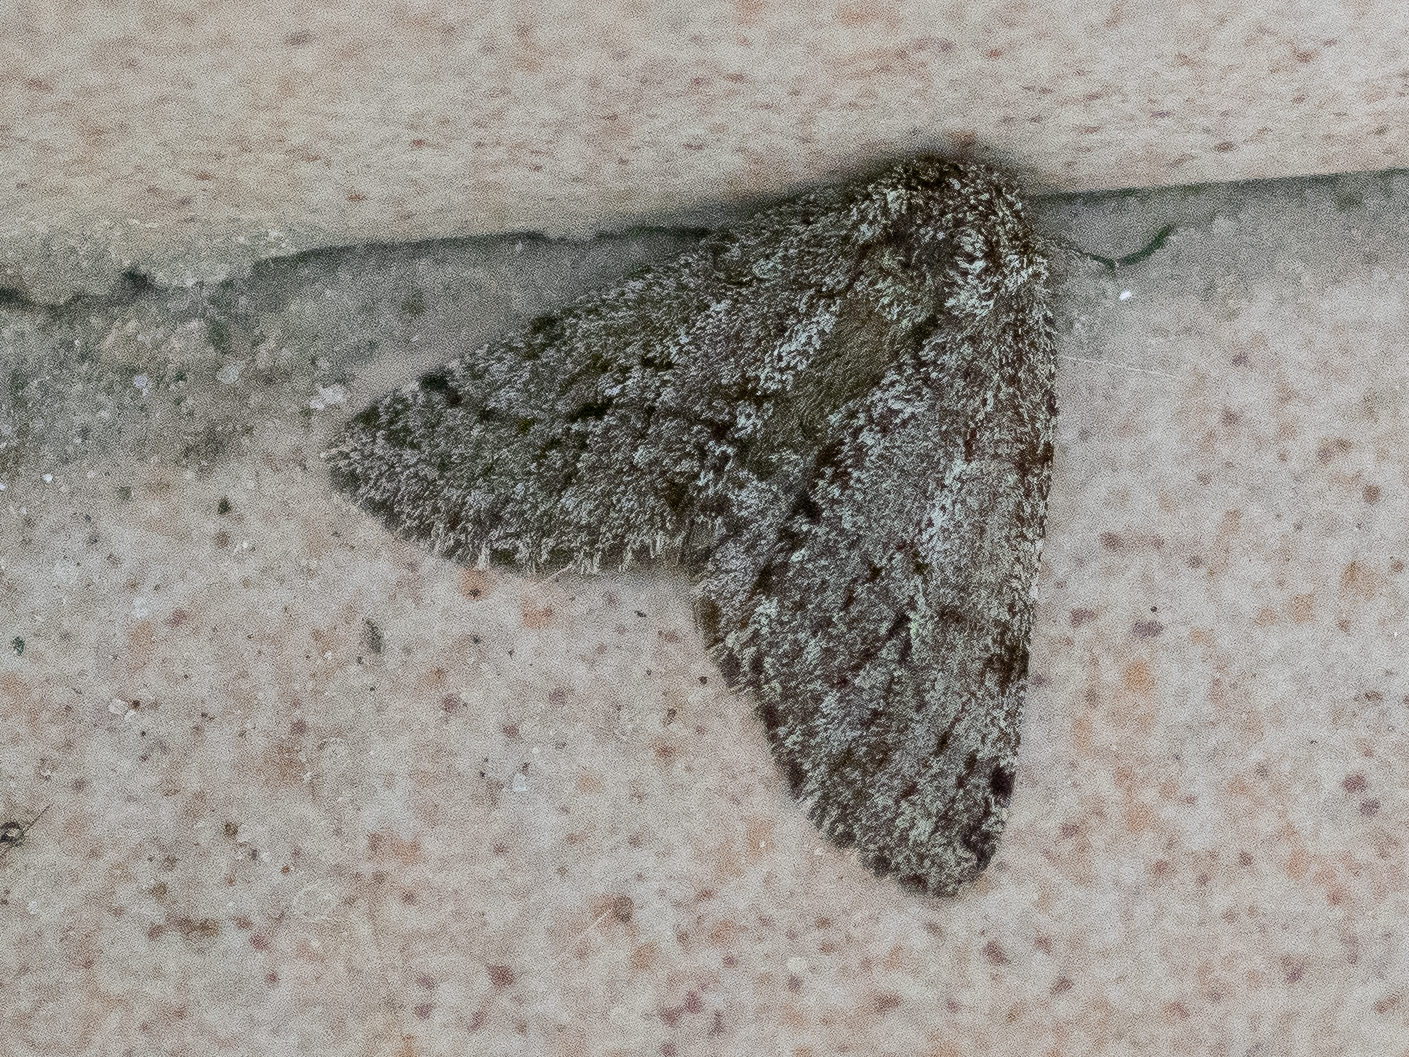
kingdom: Animalia
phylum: Arthropoda
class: Insecta
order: Lepidoptera
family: Geometridae
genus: Lycia
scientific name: Lycia hirtaria
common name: Brindled beauty
